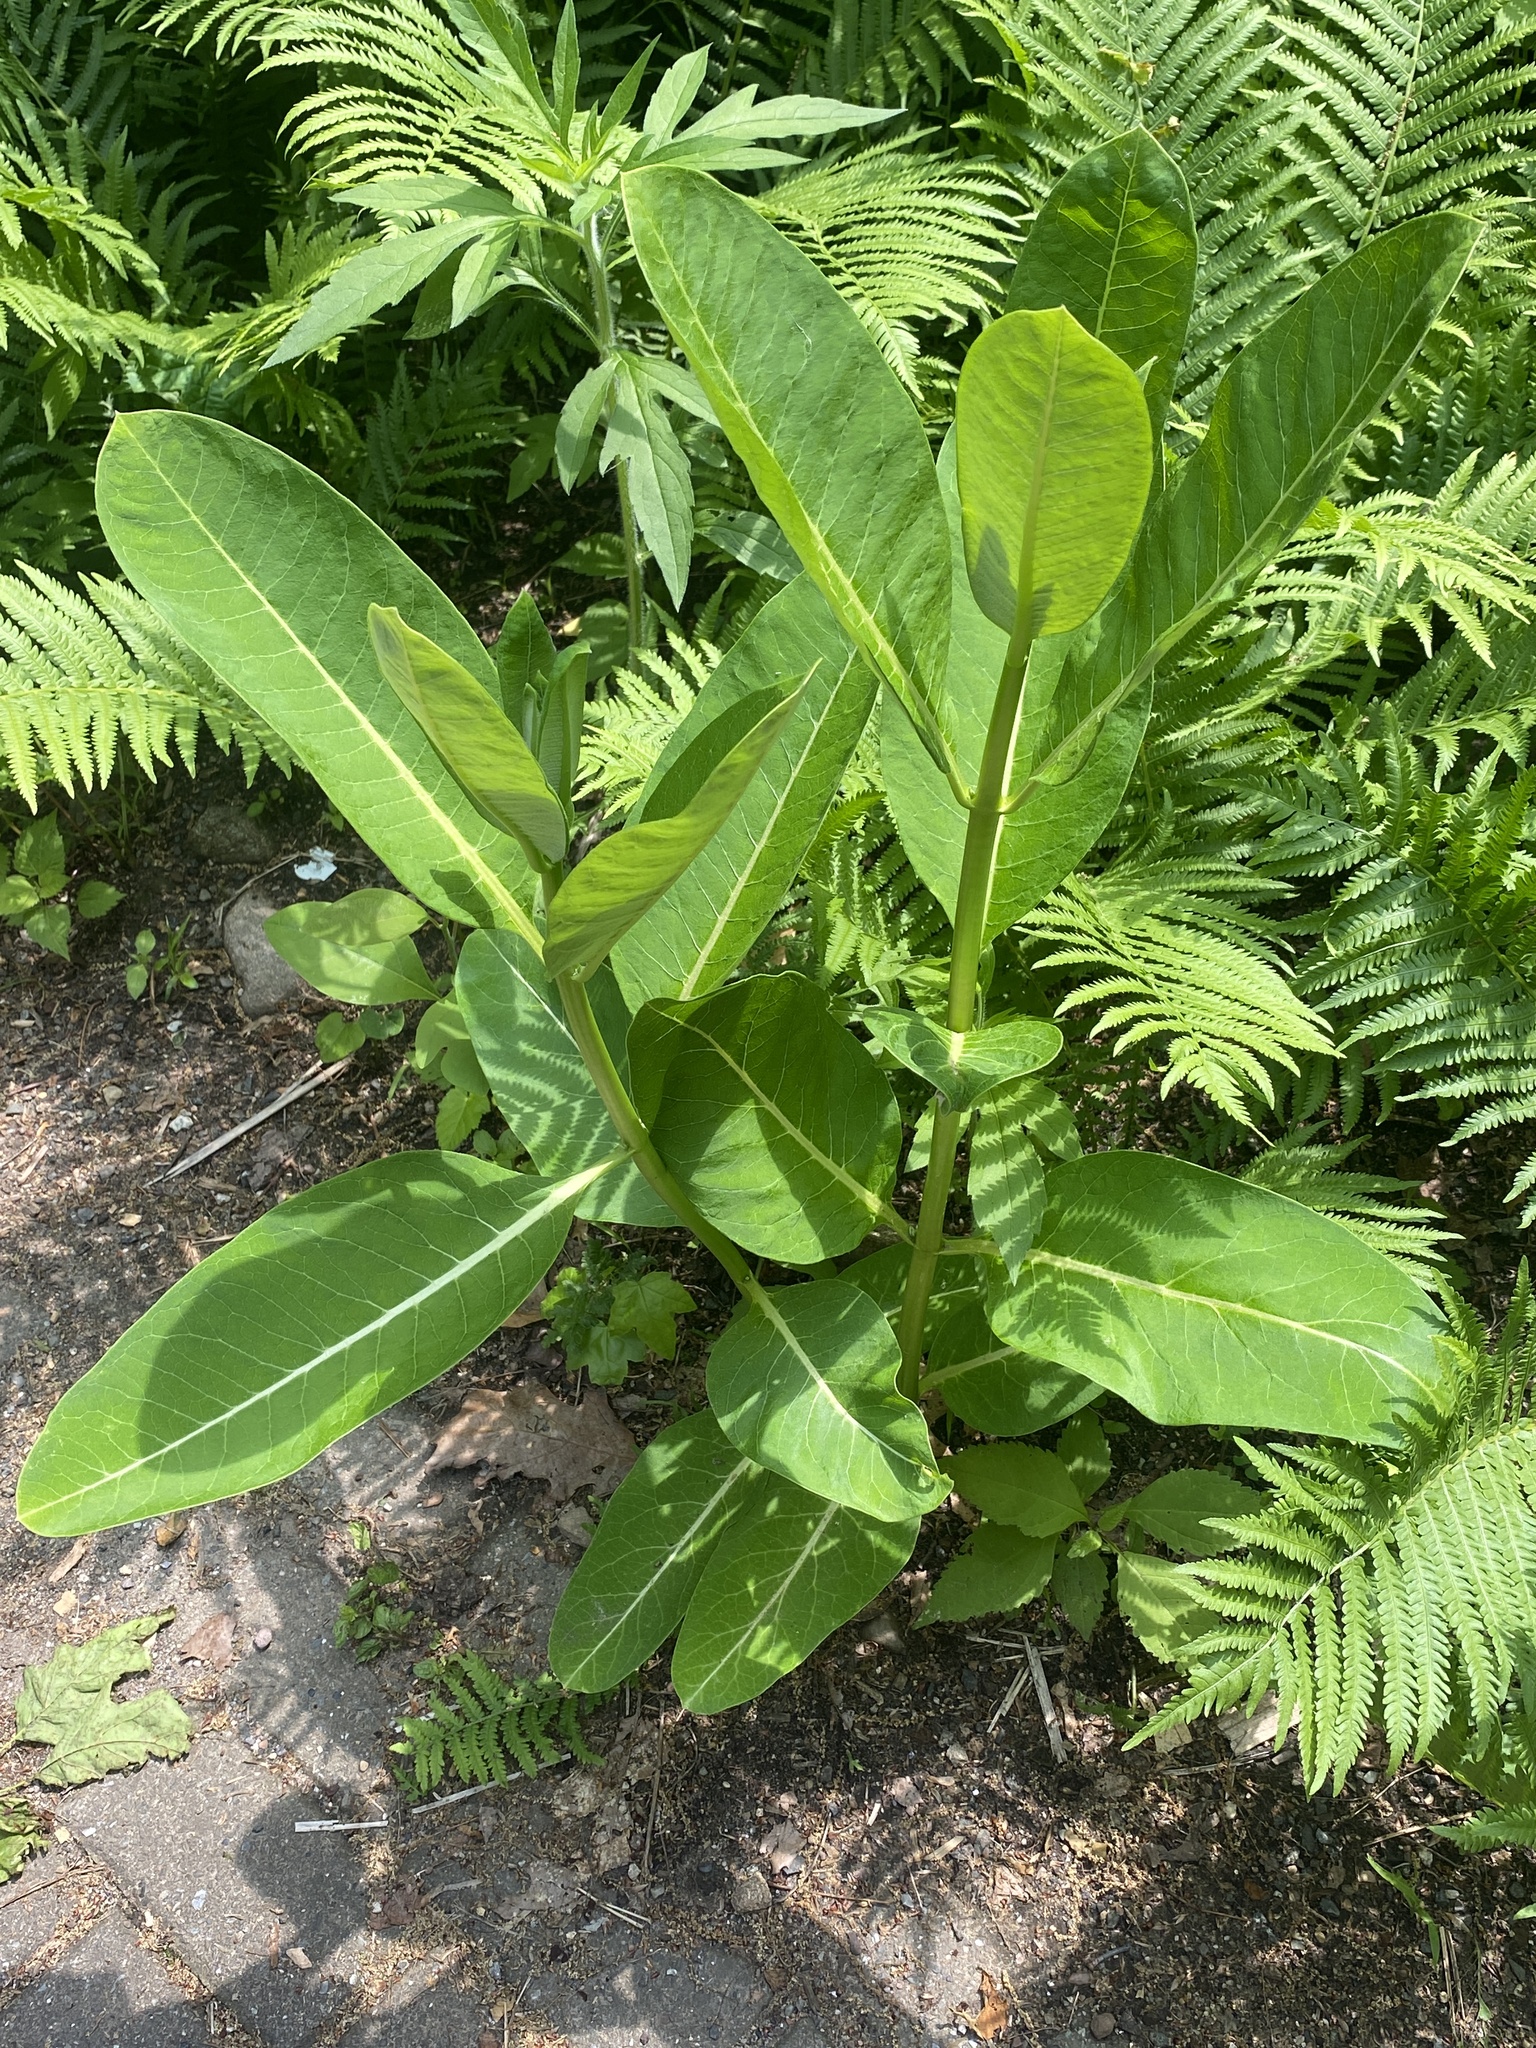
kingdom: Plantae
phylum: Tracheophyta
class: Magnoliopsida
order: Gentianales
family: Apocynaceae
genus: Asclepias
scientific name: Asclepias syriaca
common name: Common milkweed
